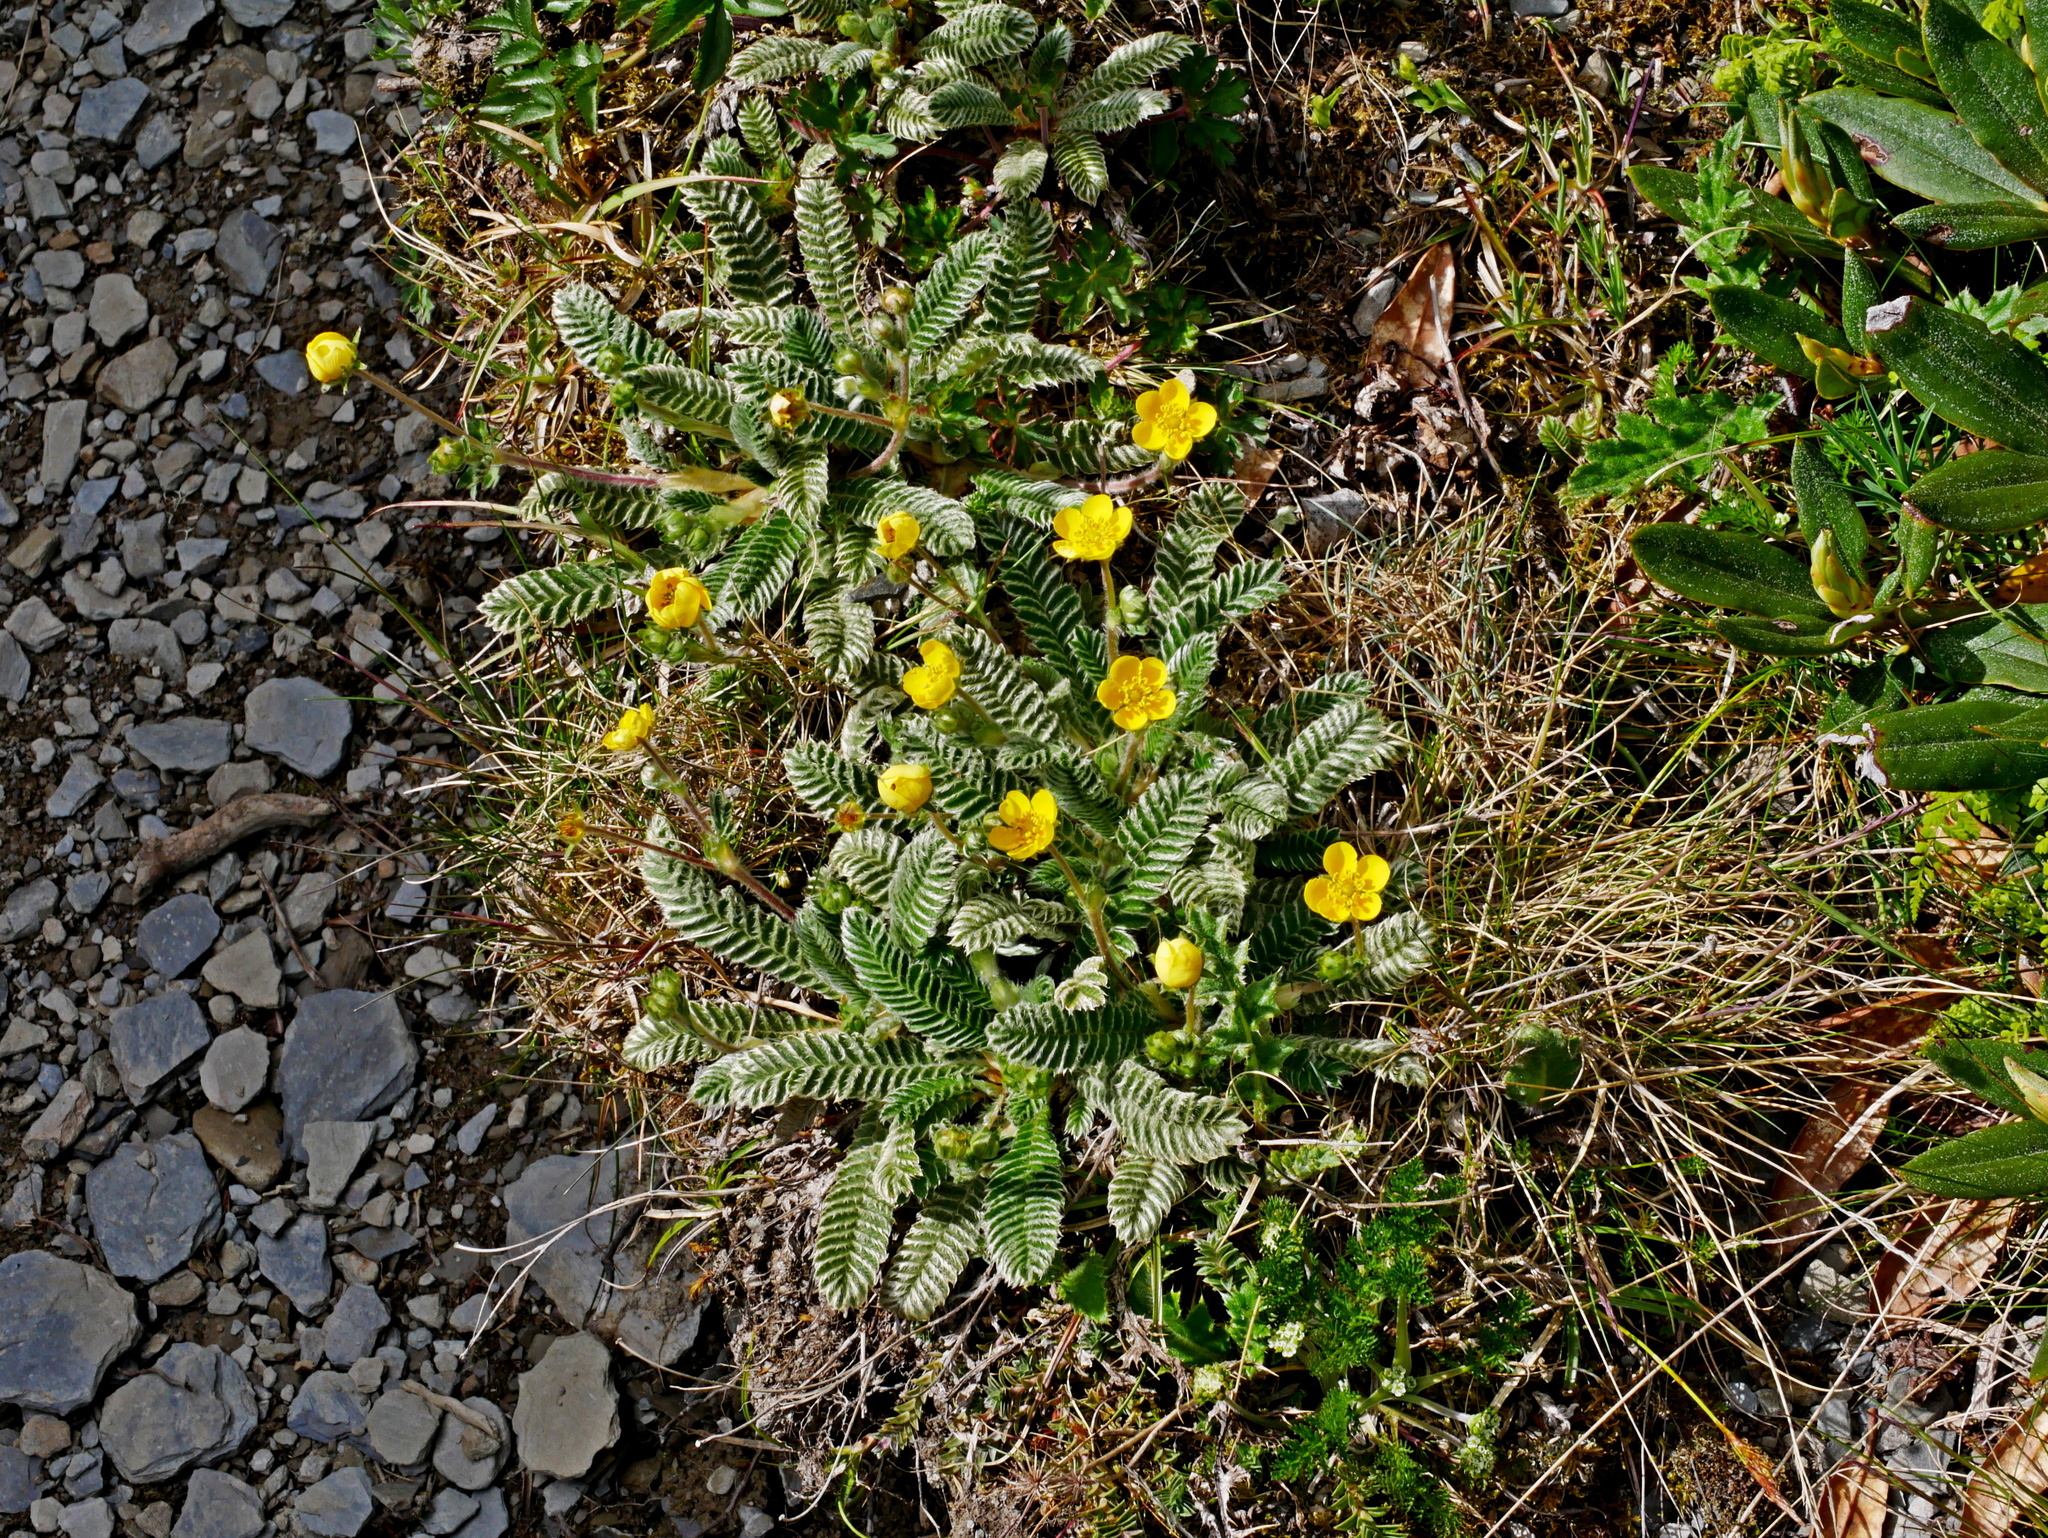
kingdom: Plantae
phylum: Tracheophyta
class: Magnoliopsida
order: Rosales
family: Rosaceae
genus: Argentina
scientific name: Argentina tugitakensis
